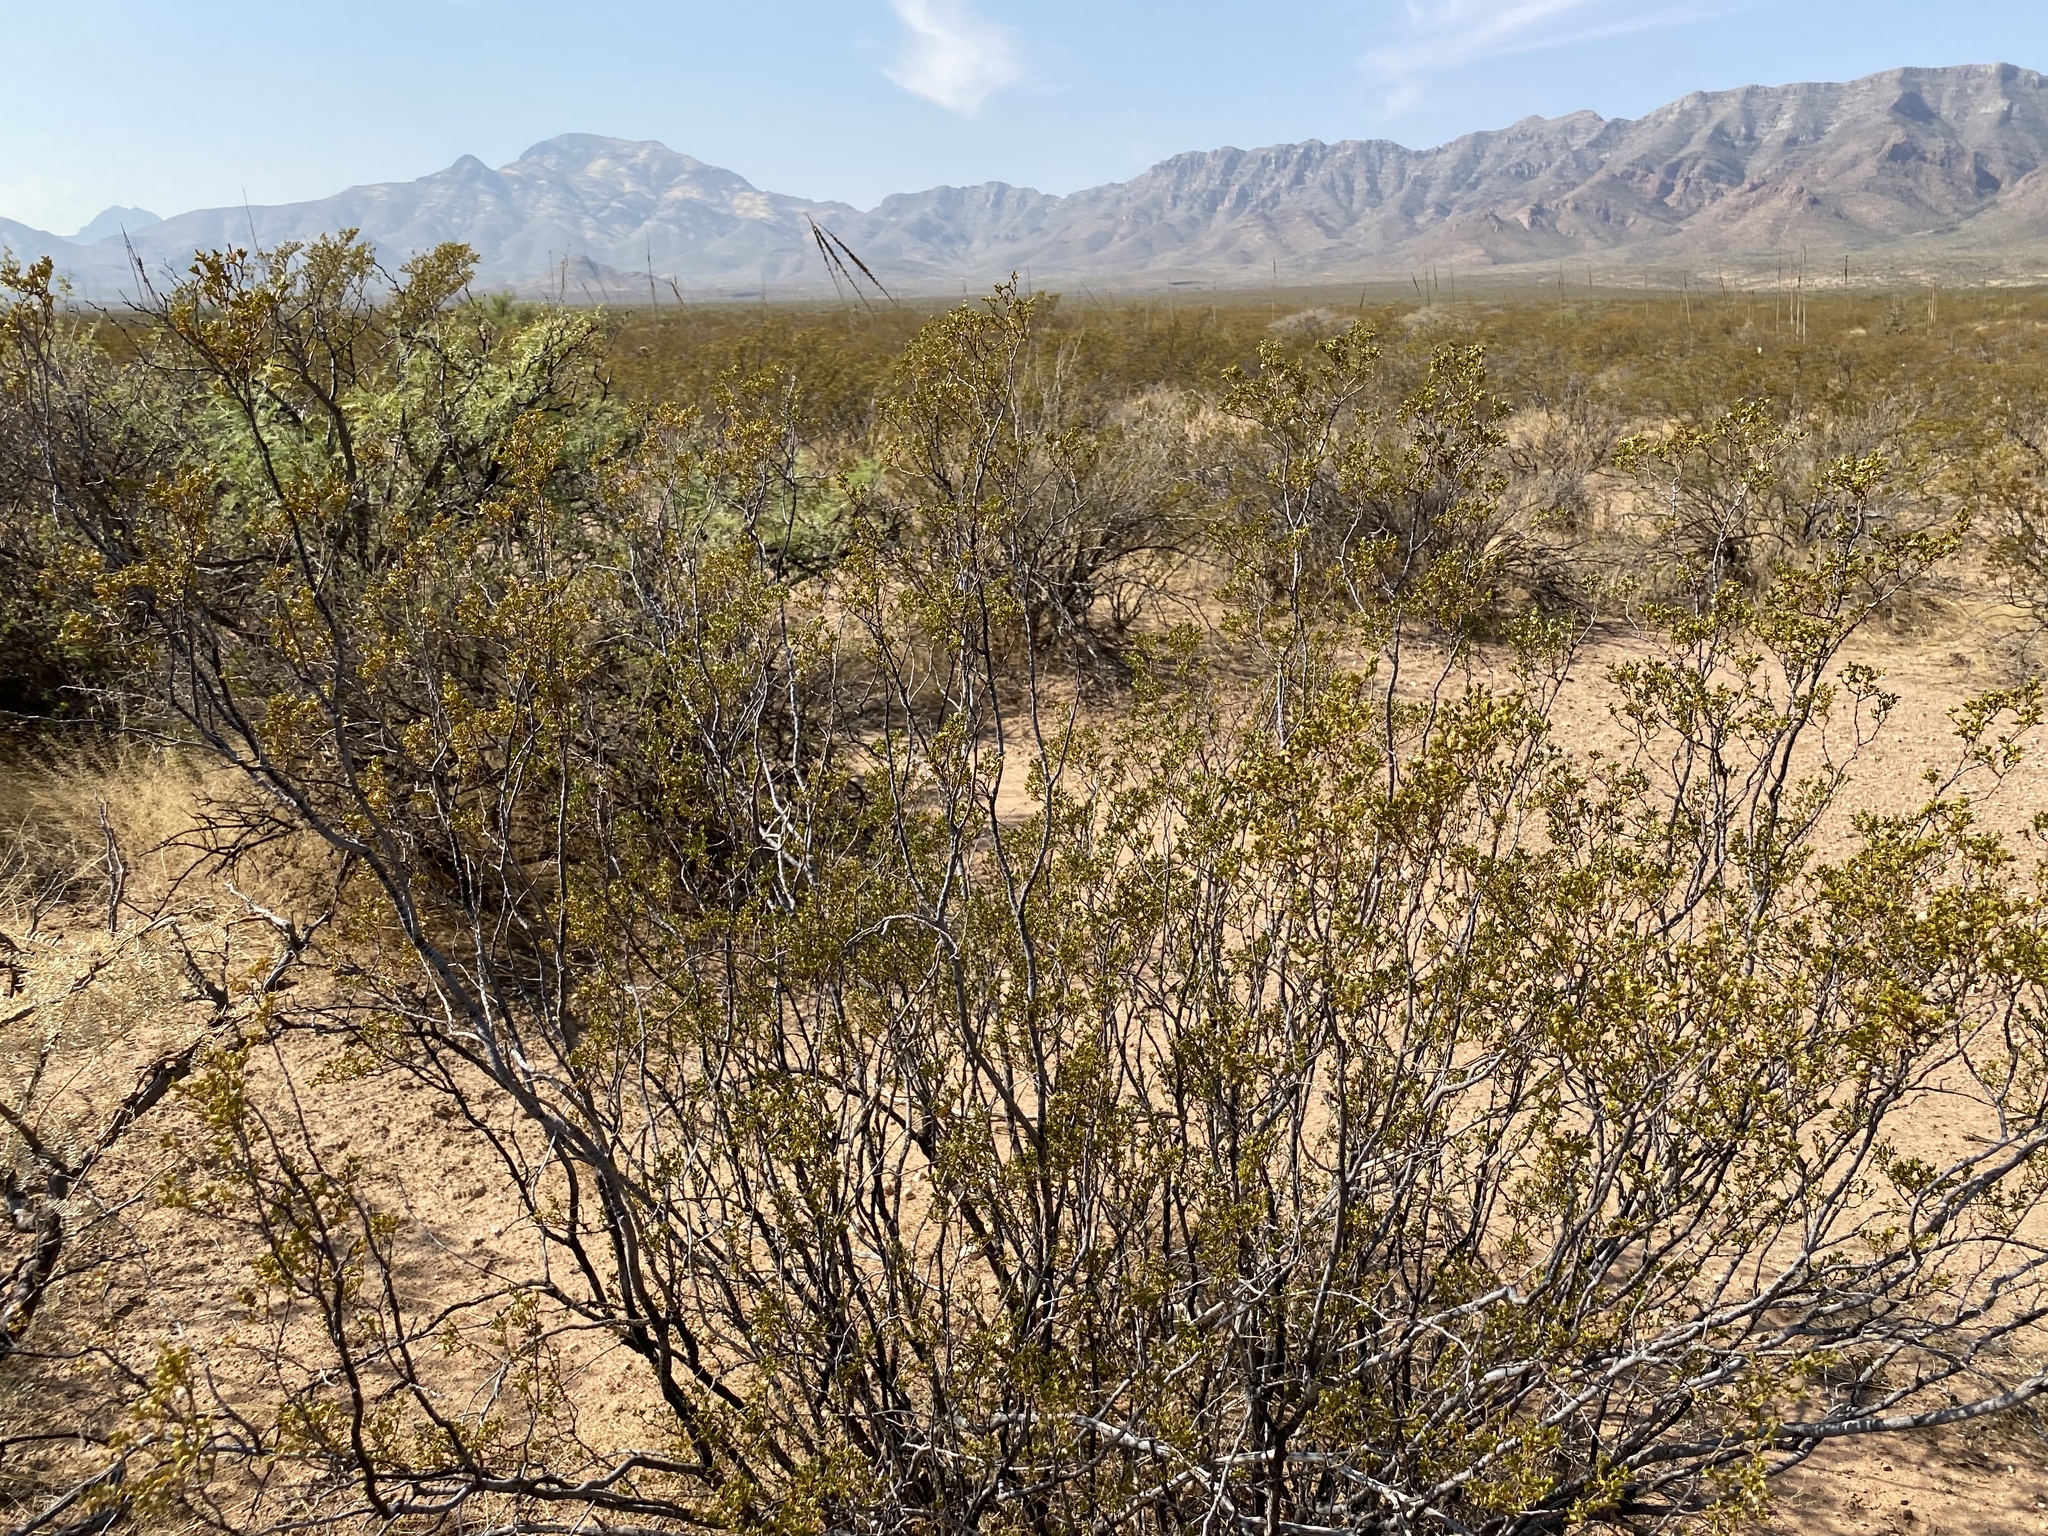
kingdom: Plantae
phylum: Tracheophyta
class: Magnoliopsida
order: Zygophyllales
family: Zygophyllaceae
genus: Larrea
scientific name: Larrea tridentata
